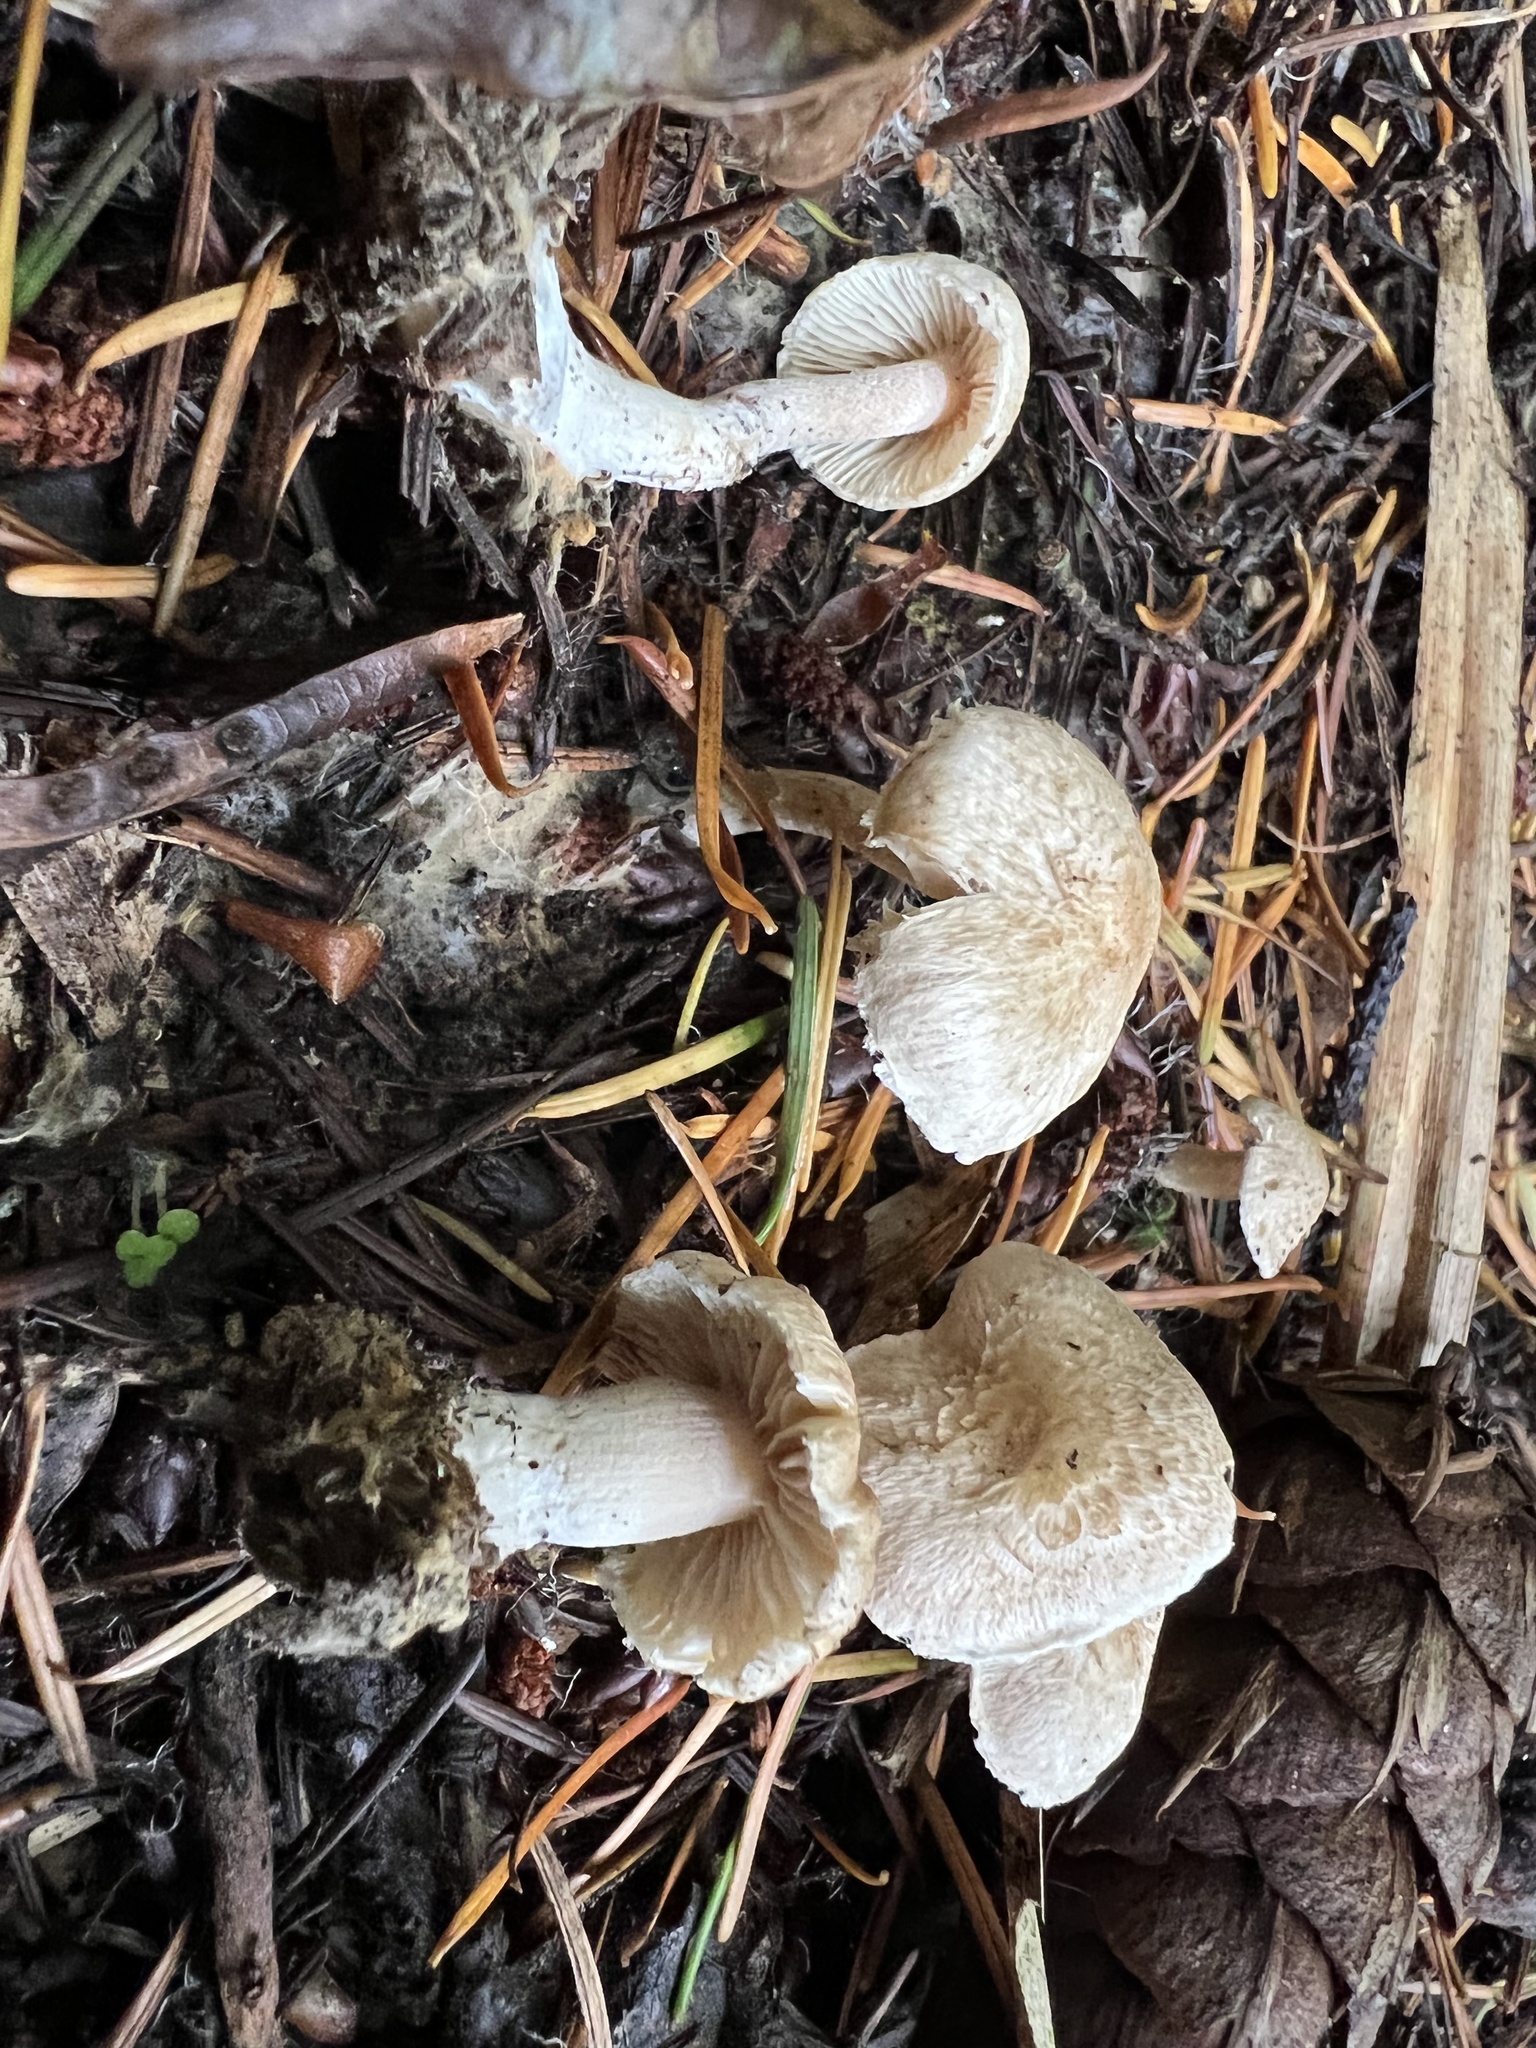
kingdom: Fungi
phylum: Basidiomycota
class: Agaricomycetes
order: Agaricales
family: Inocybaceae
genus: Inocybe
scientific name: Inocybe sindonia
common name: Beige fibrecap
